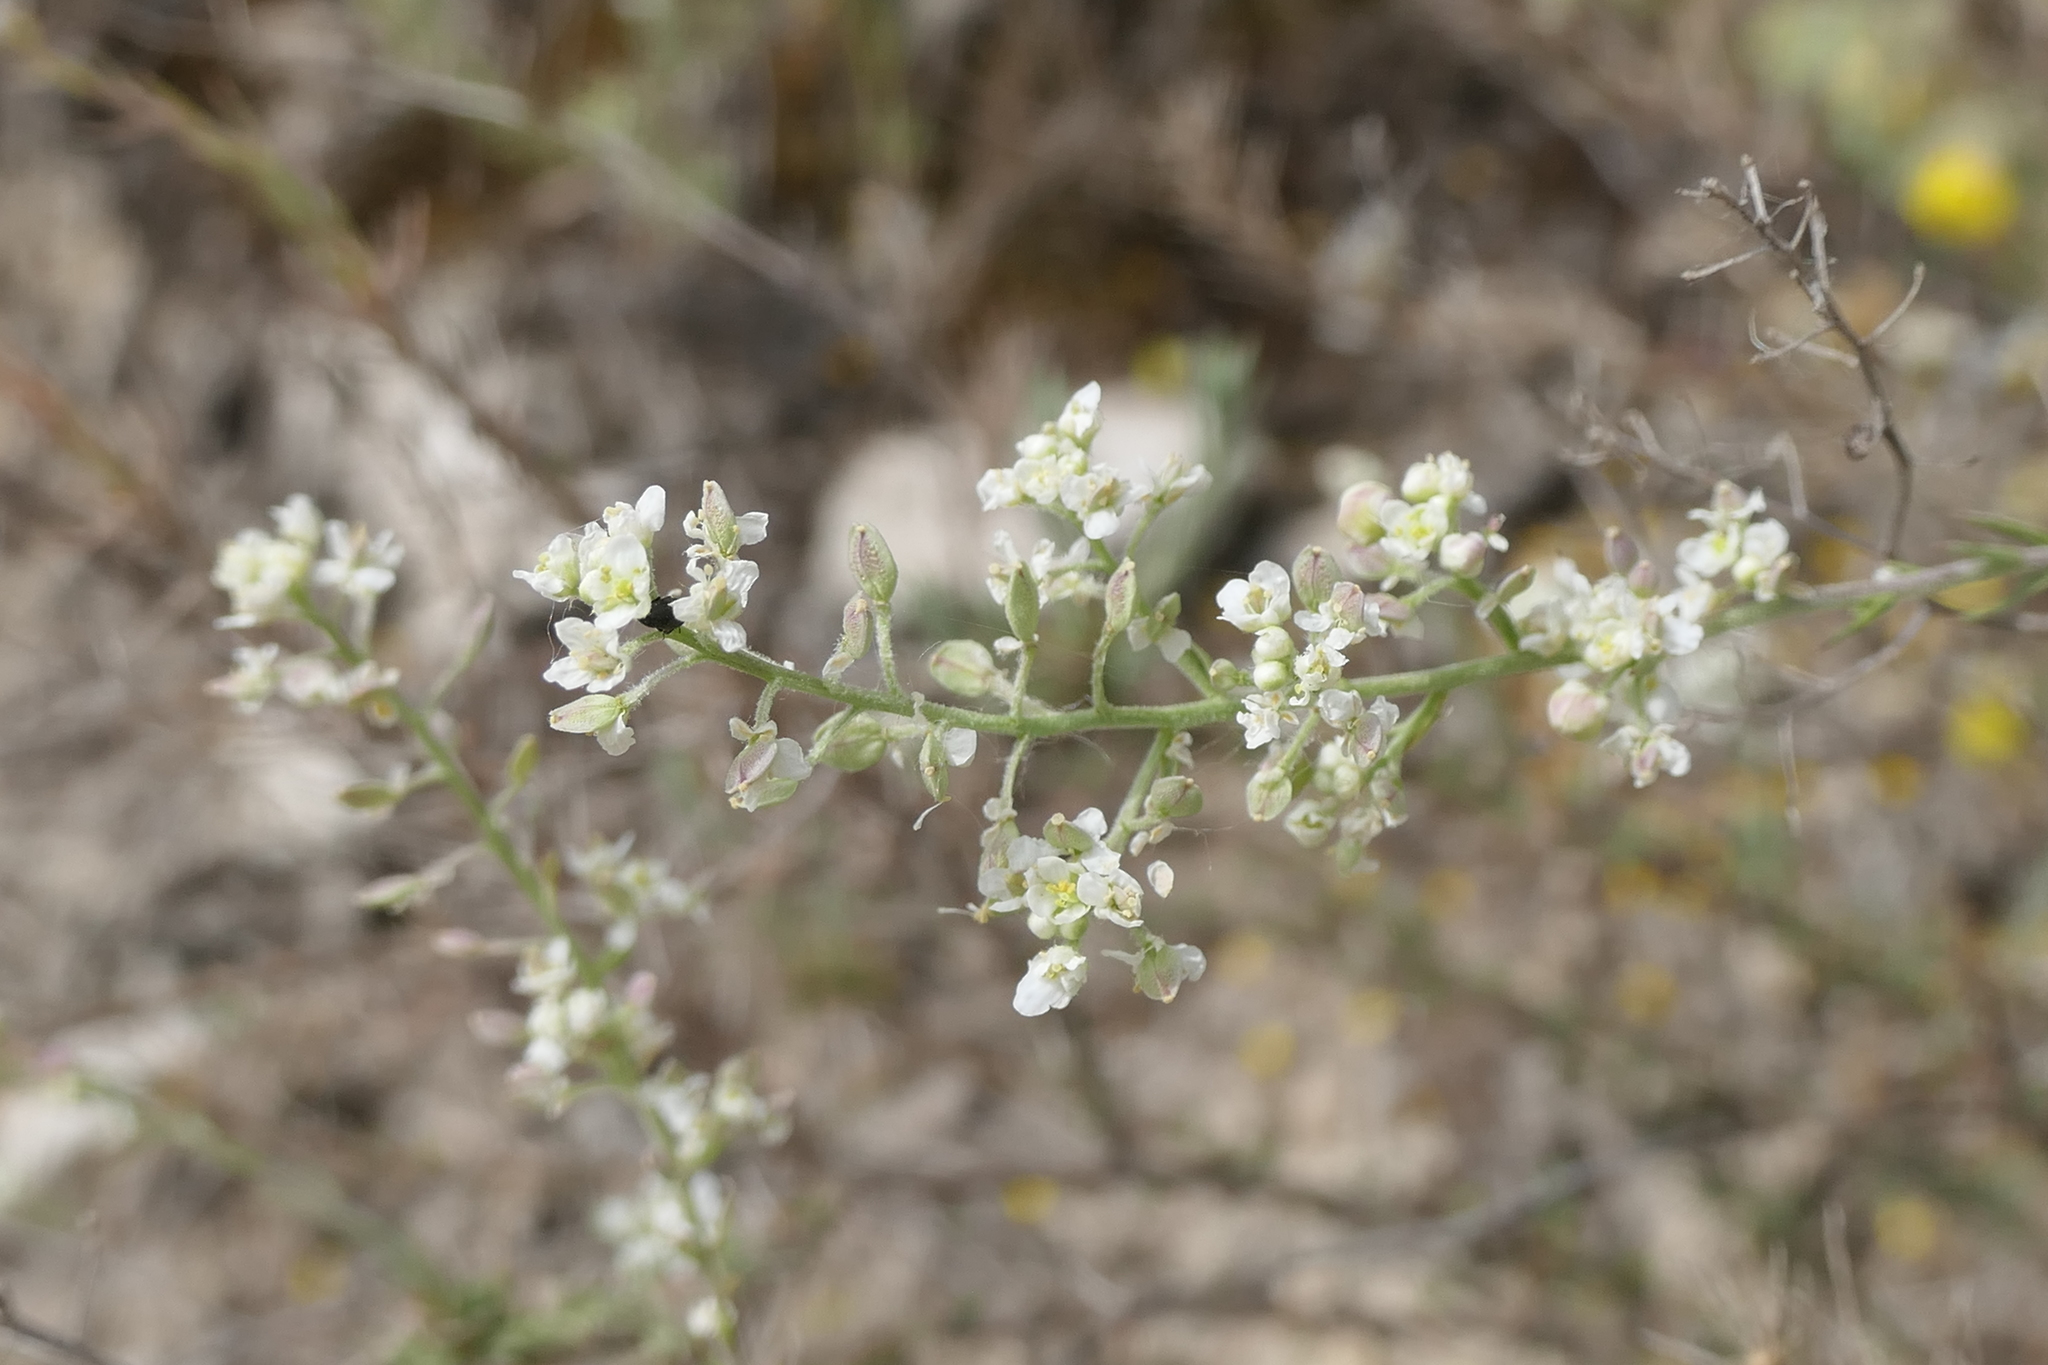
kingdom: Plantae
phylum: Tracheophyta
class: Magnoliopsida
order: Brassicales
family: Brassicaceae
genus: Lepidium
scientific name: Lepidium subulatum
